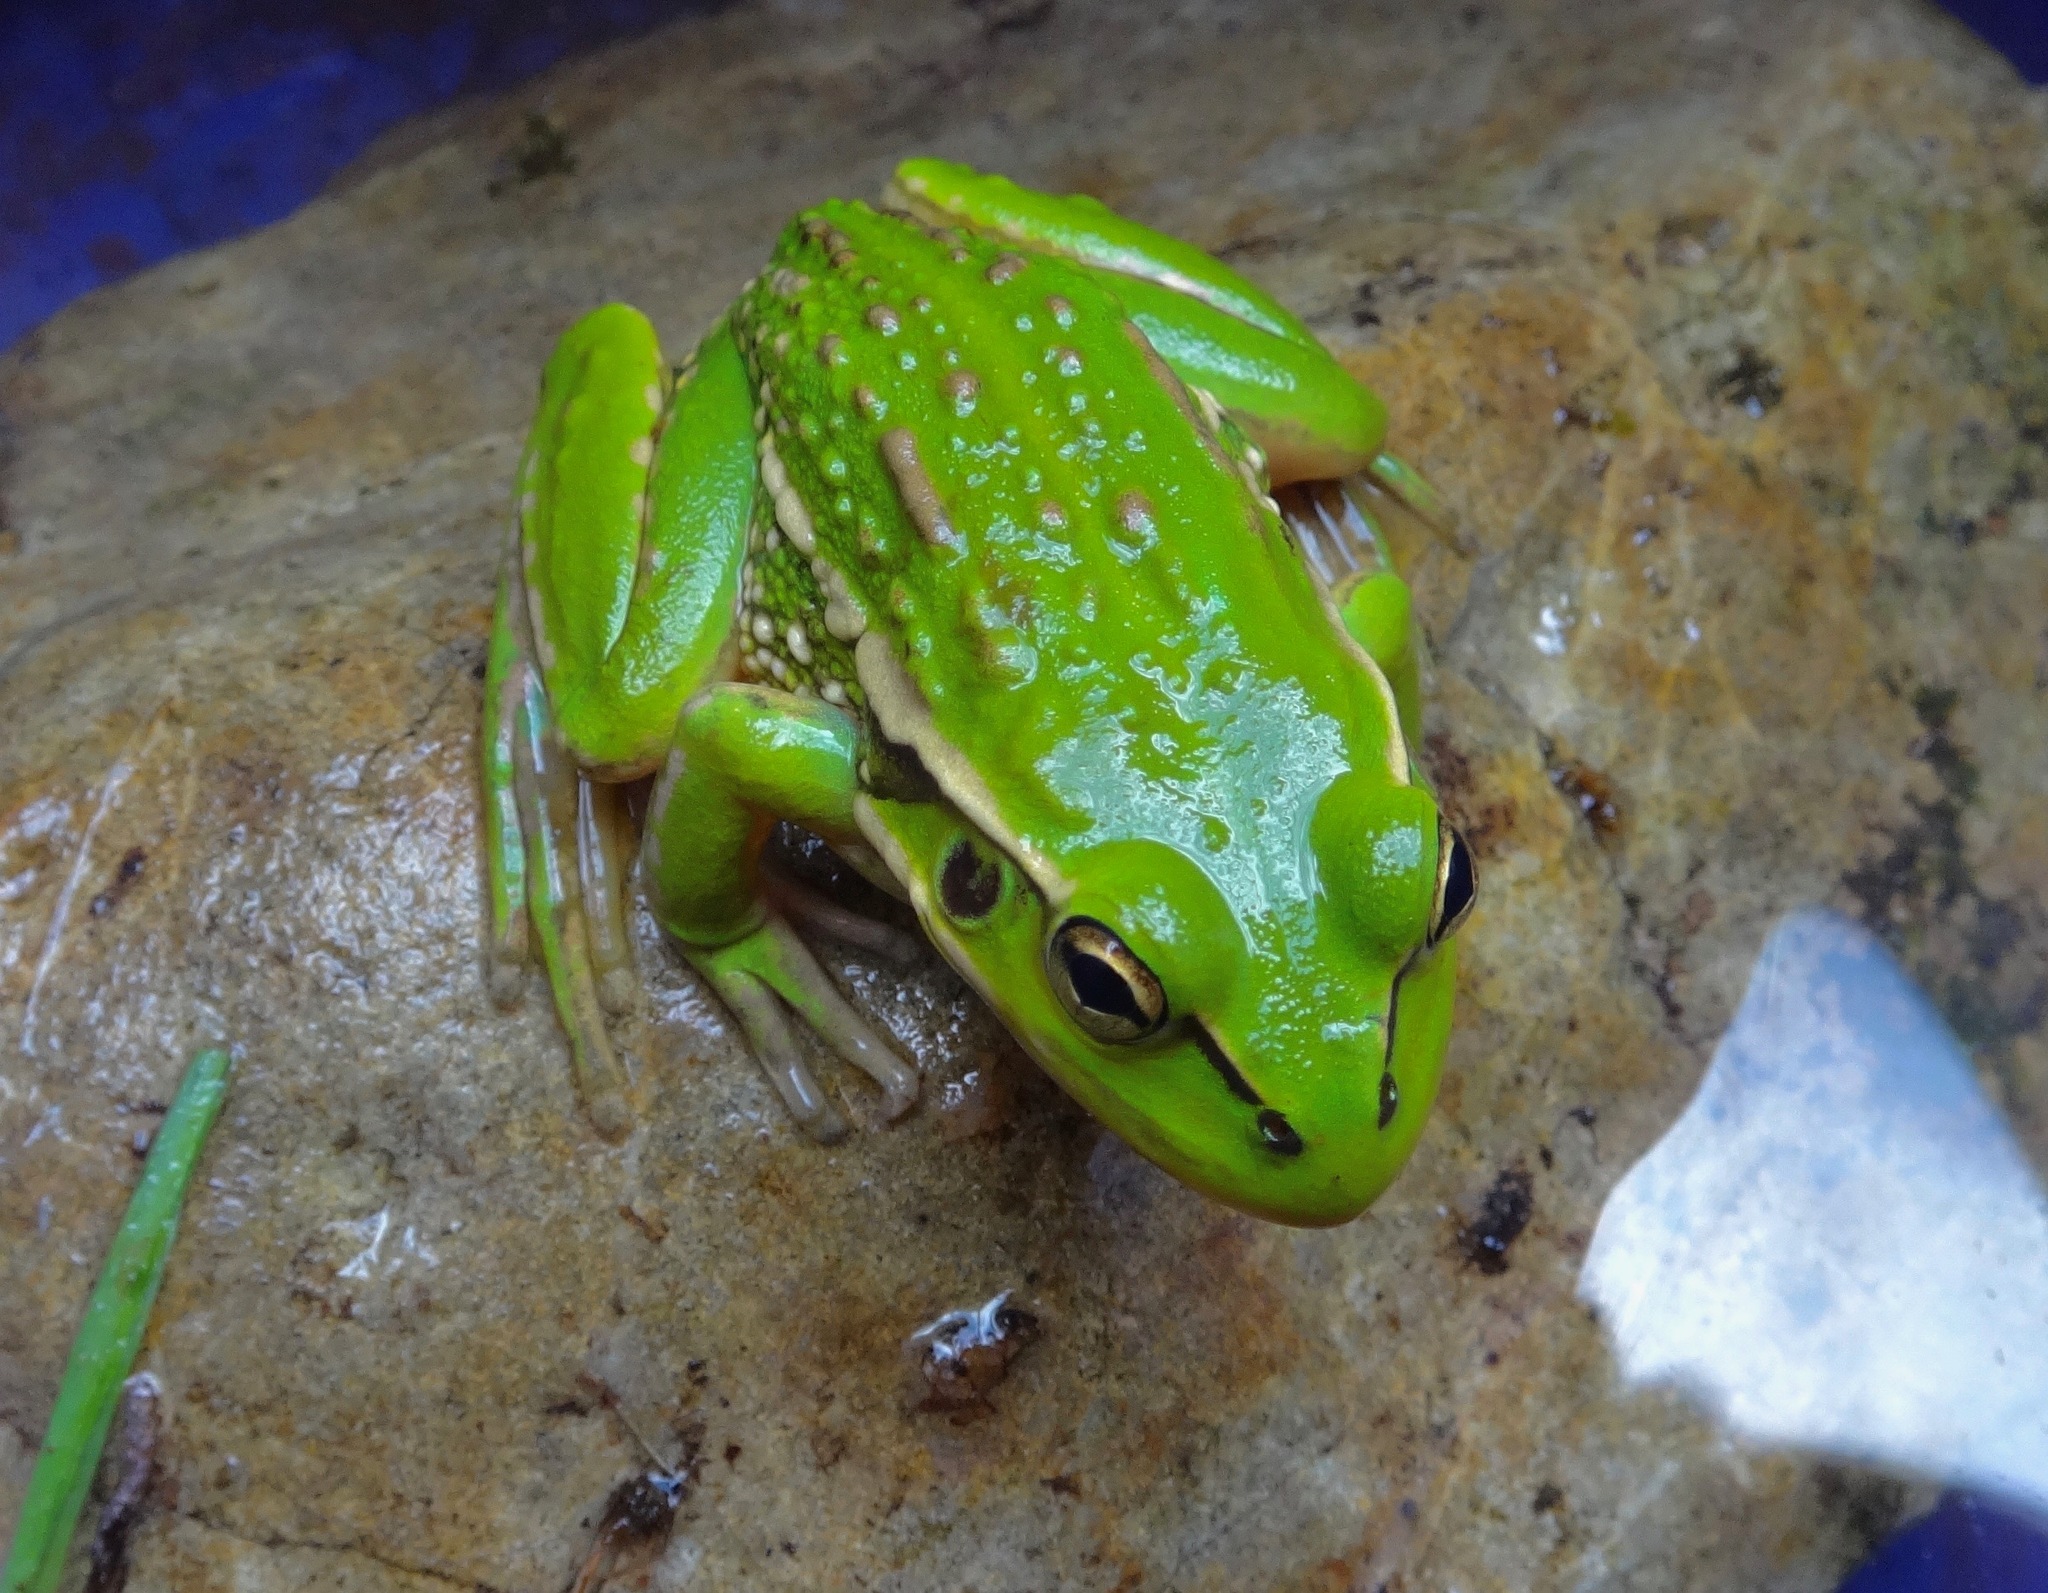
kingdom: Animalia
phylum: Chordata
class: Amphibia
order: Anura
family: Pelodryadidae
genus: Ranoidea
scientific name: Ranoidea raniformis
